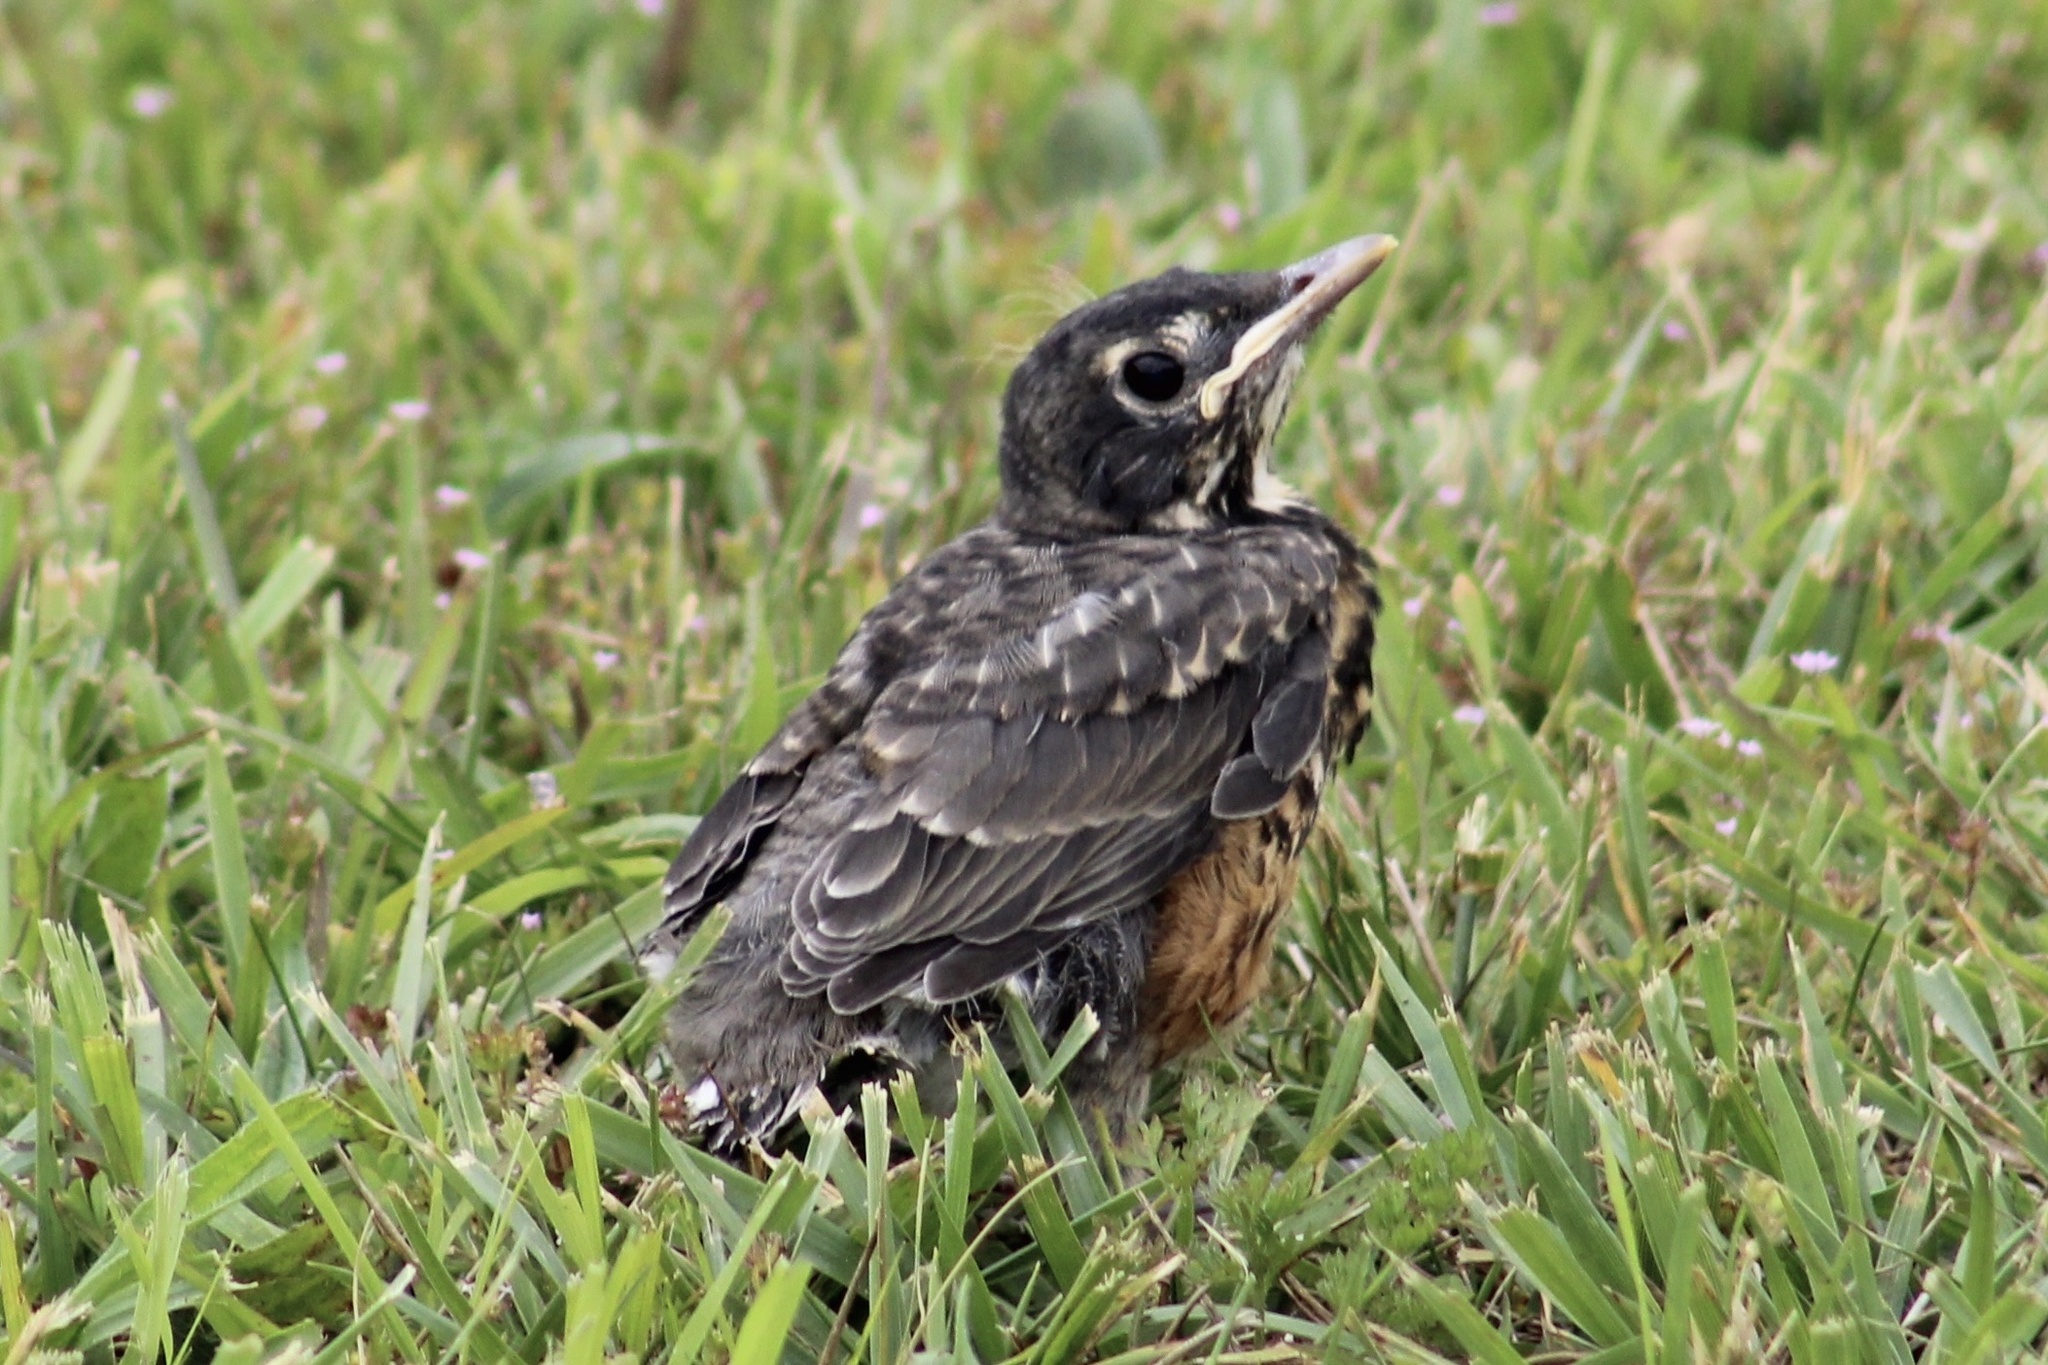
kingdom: Animalia
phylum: Chordata
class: Aves
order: Passeriformes
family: Turdidae
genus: Turdus
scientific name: Turdus migratorius
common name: American robin
